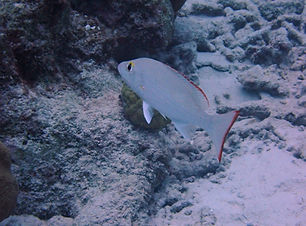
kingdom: Animalia
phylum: Chordata
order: Perciformes
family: Lutjanidae
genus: Lutjanus
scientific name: Lutjanus mahogoni
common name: Spot snapper
